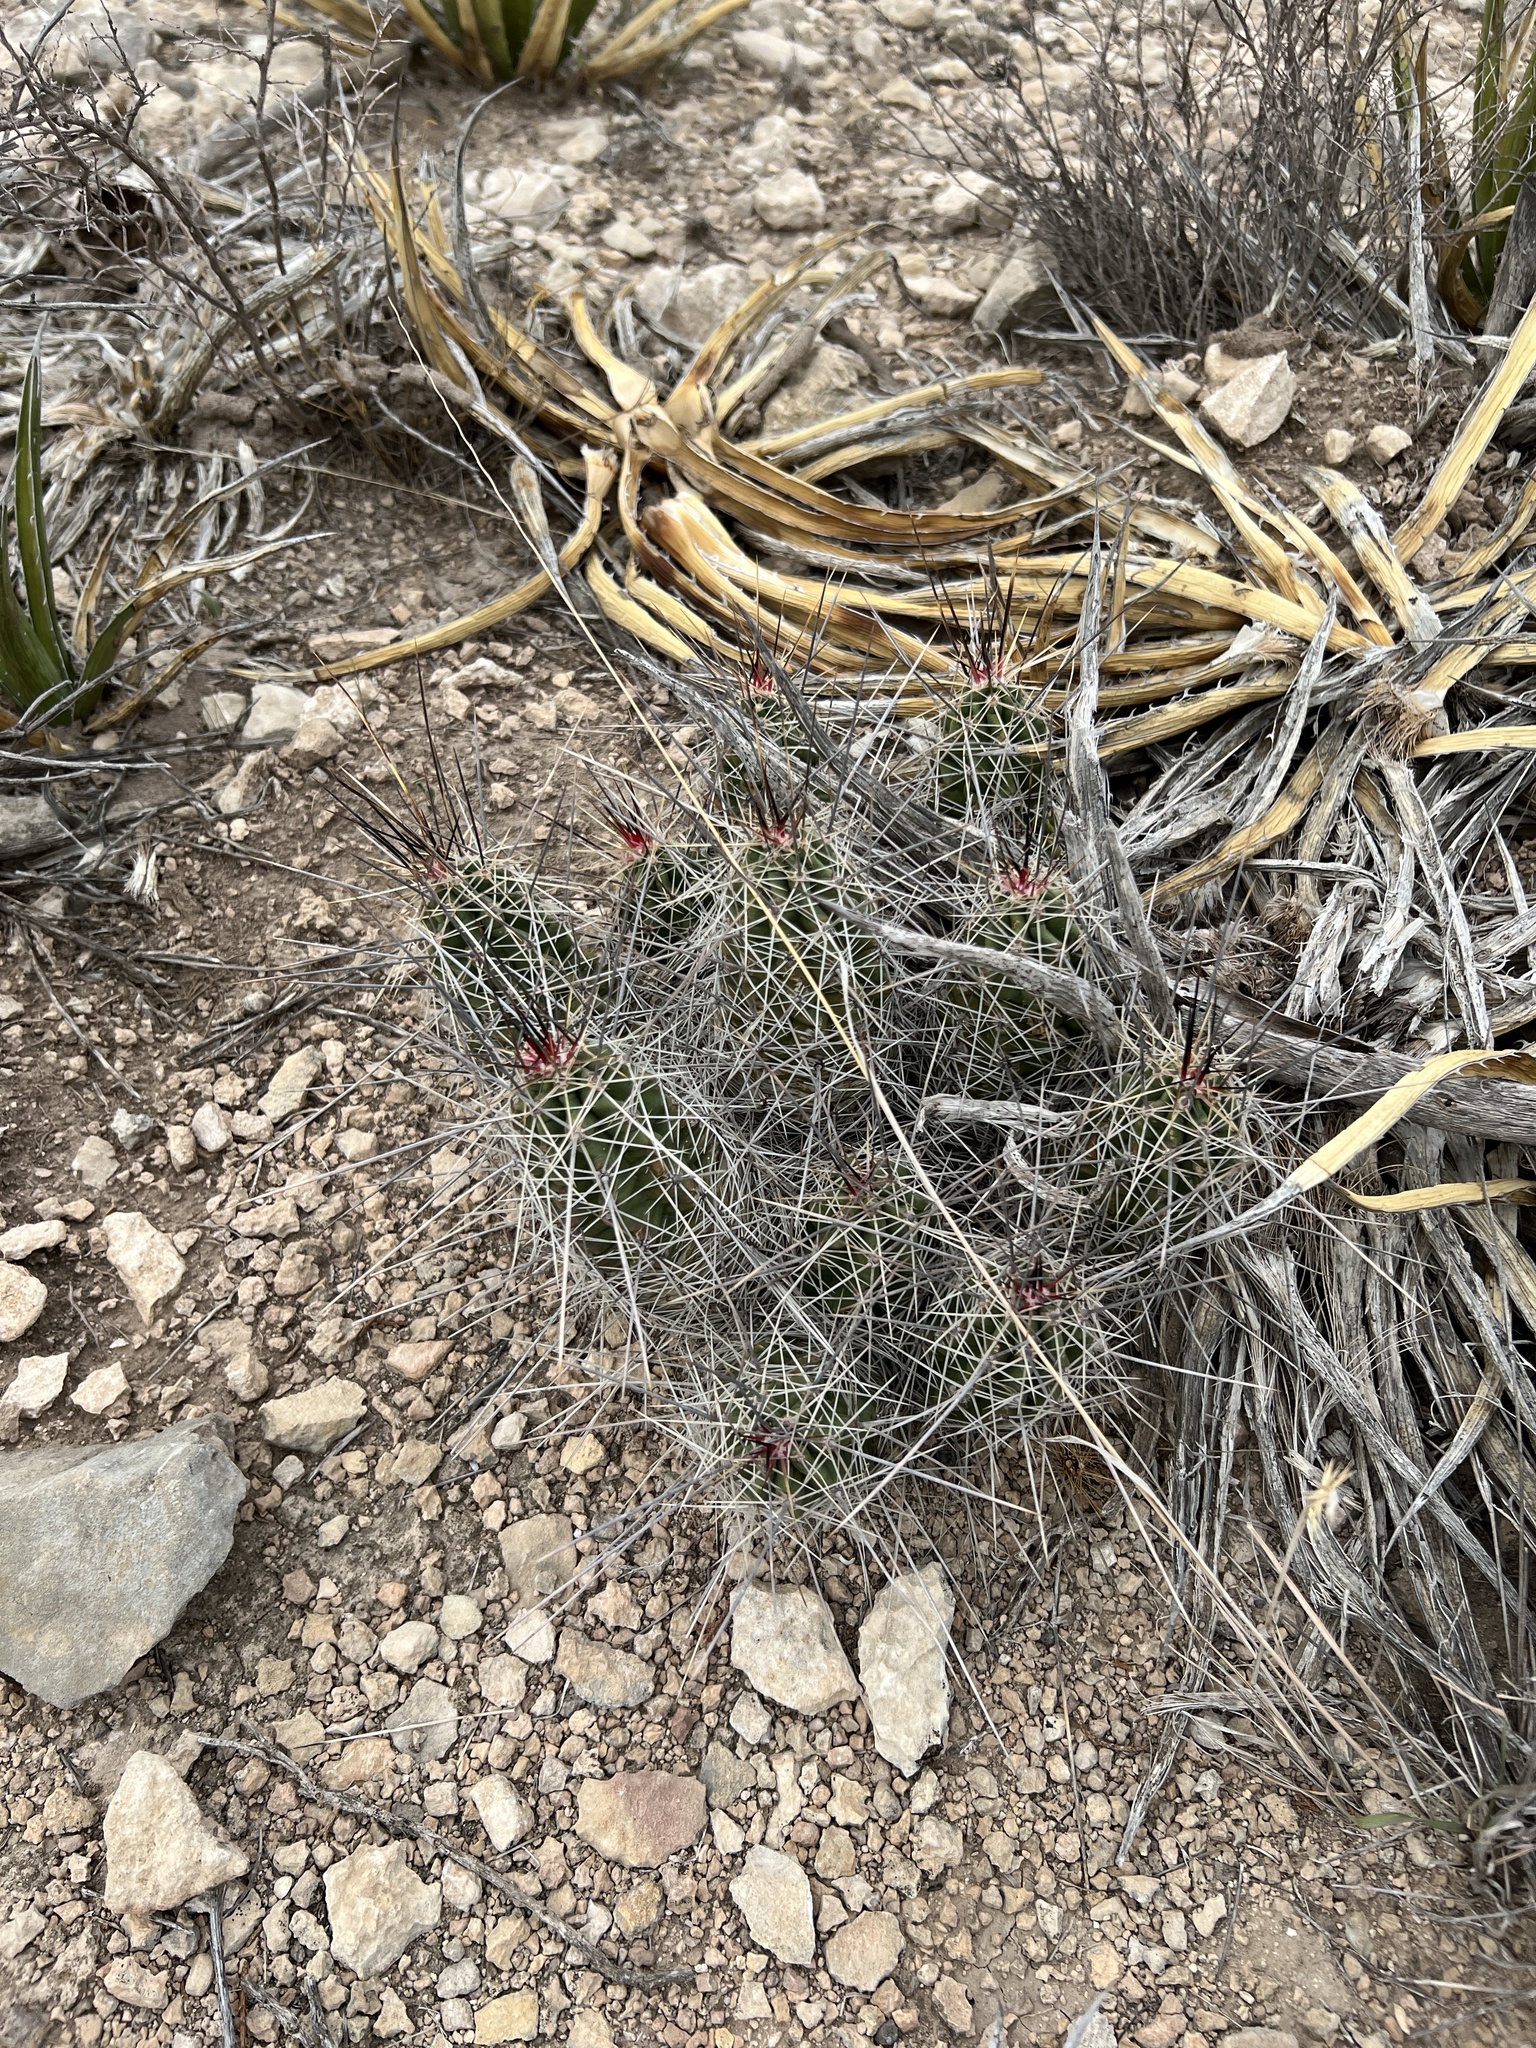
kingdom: Plantae
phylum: Tracheophyta
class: Magnoliopsida
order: Caryophyllales
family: Cactaceae
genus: Echinocereus
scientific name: Echinocereus enneacanthus
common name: Pitaya
